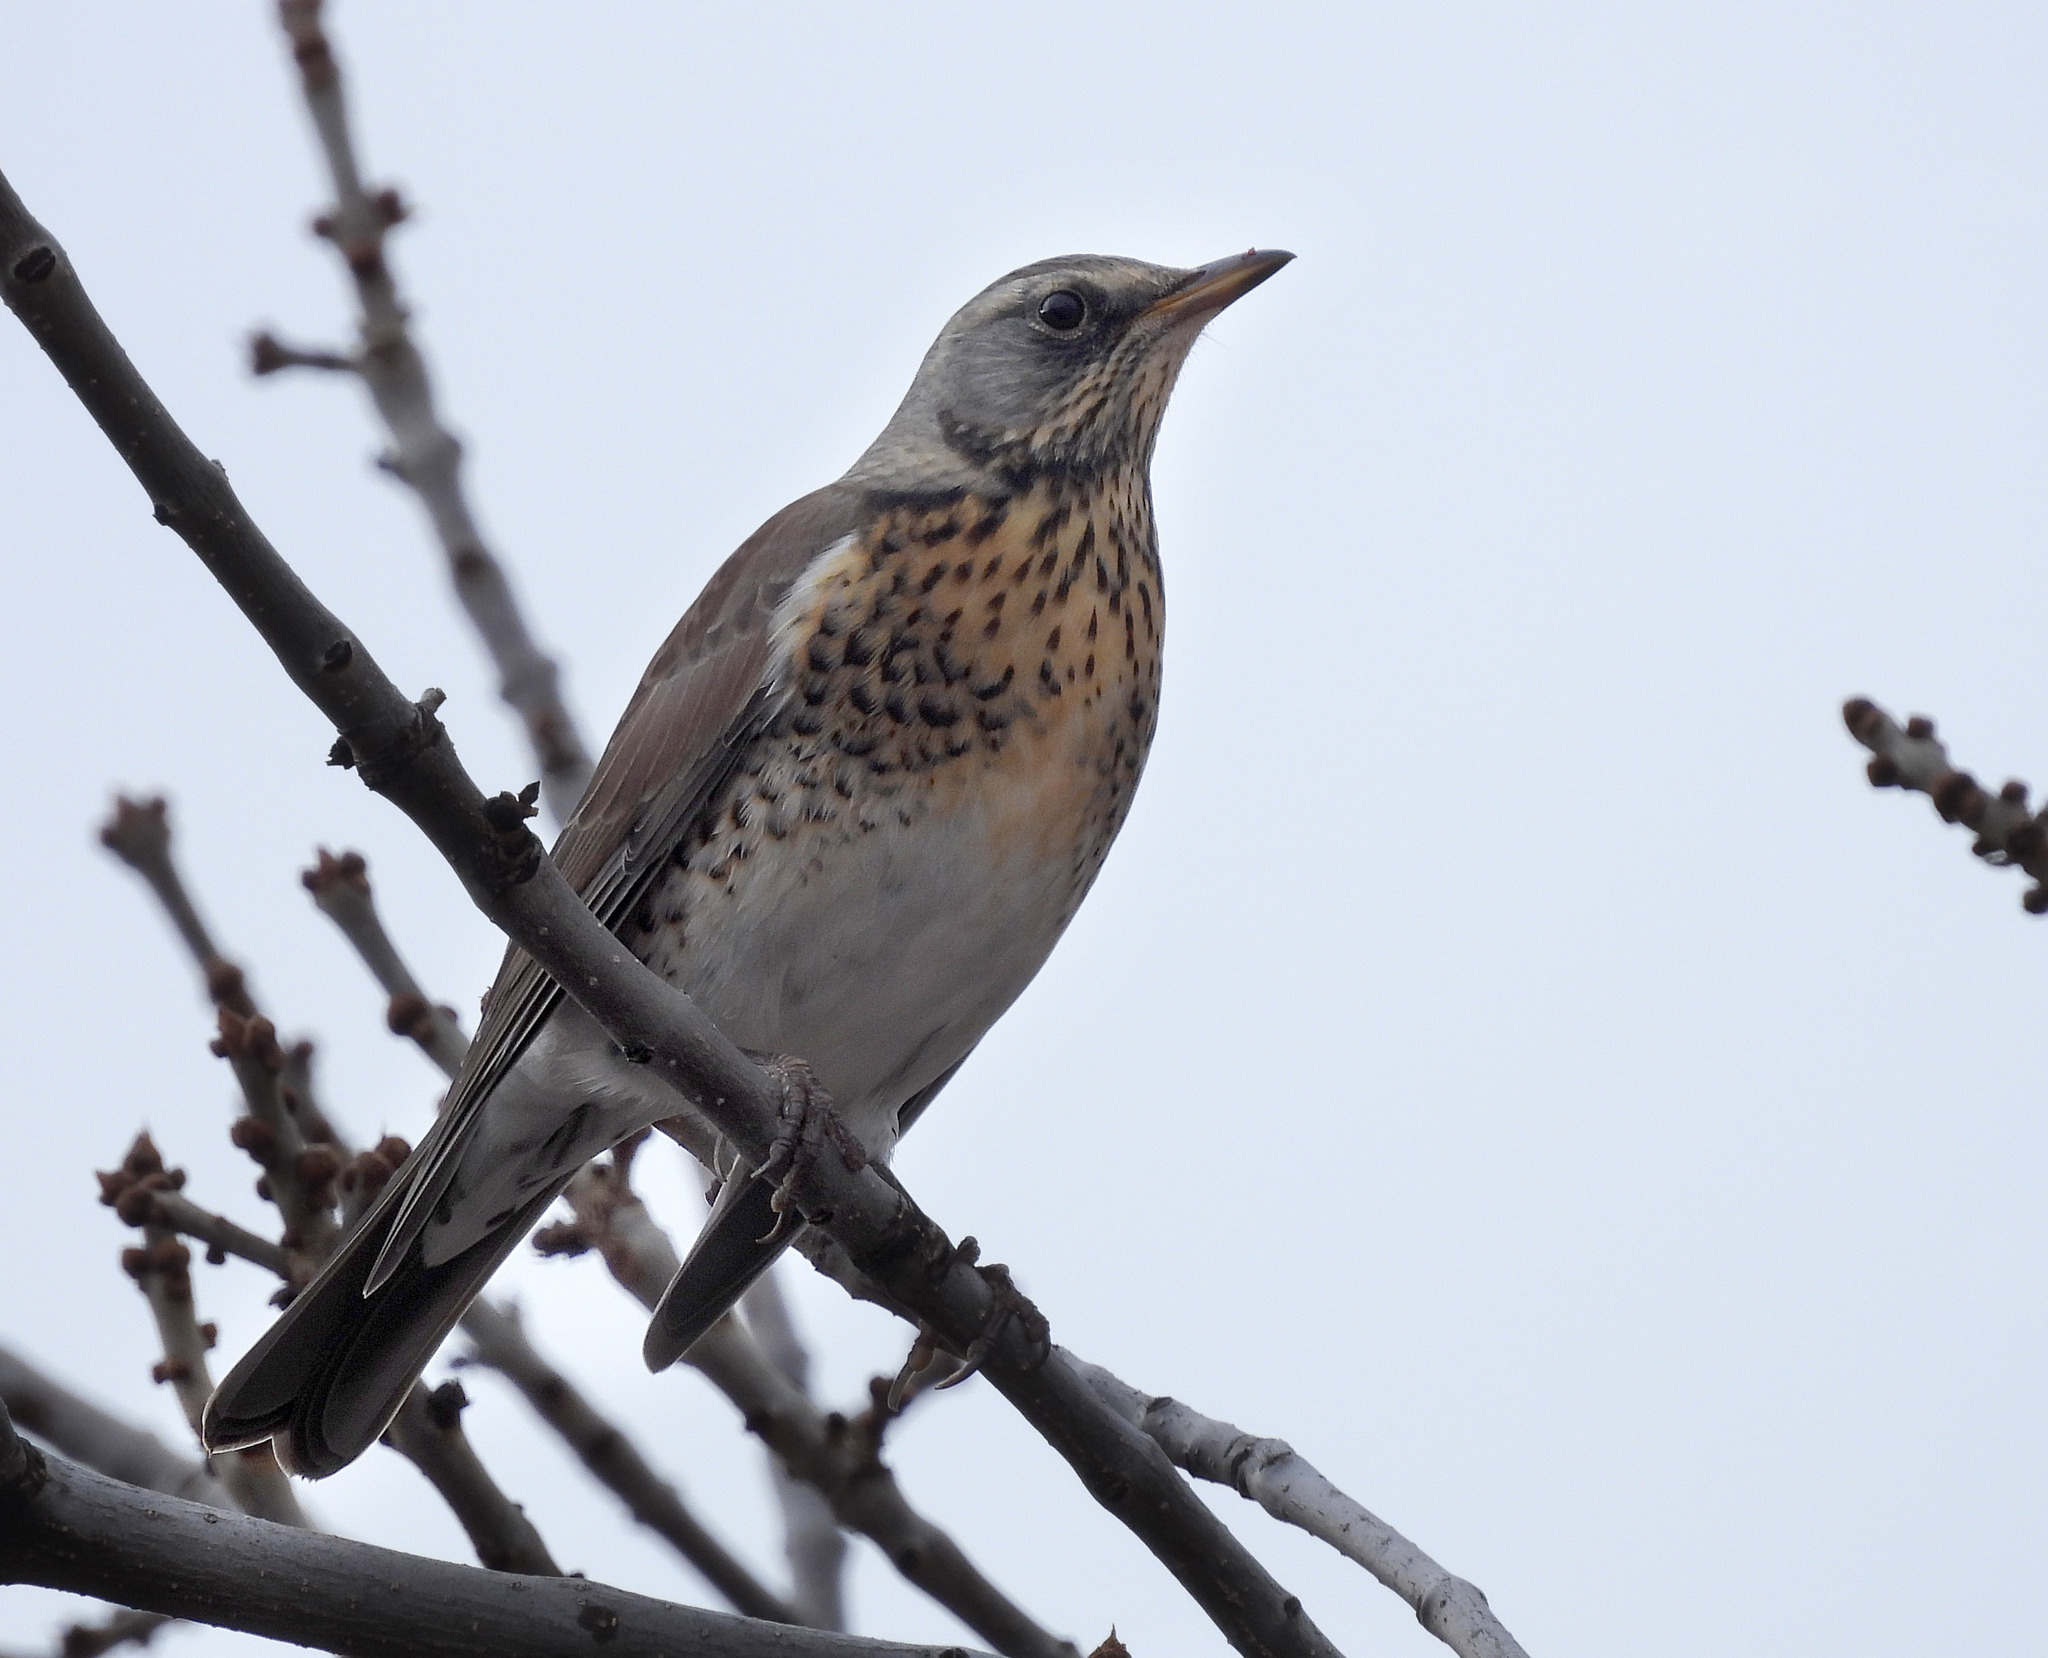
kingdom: Animalia
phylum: Chordata
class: Aves
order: Passeriformes
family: Turdidae
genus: Turdus
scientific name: Turdus pilaris
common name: Fieldfare
